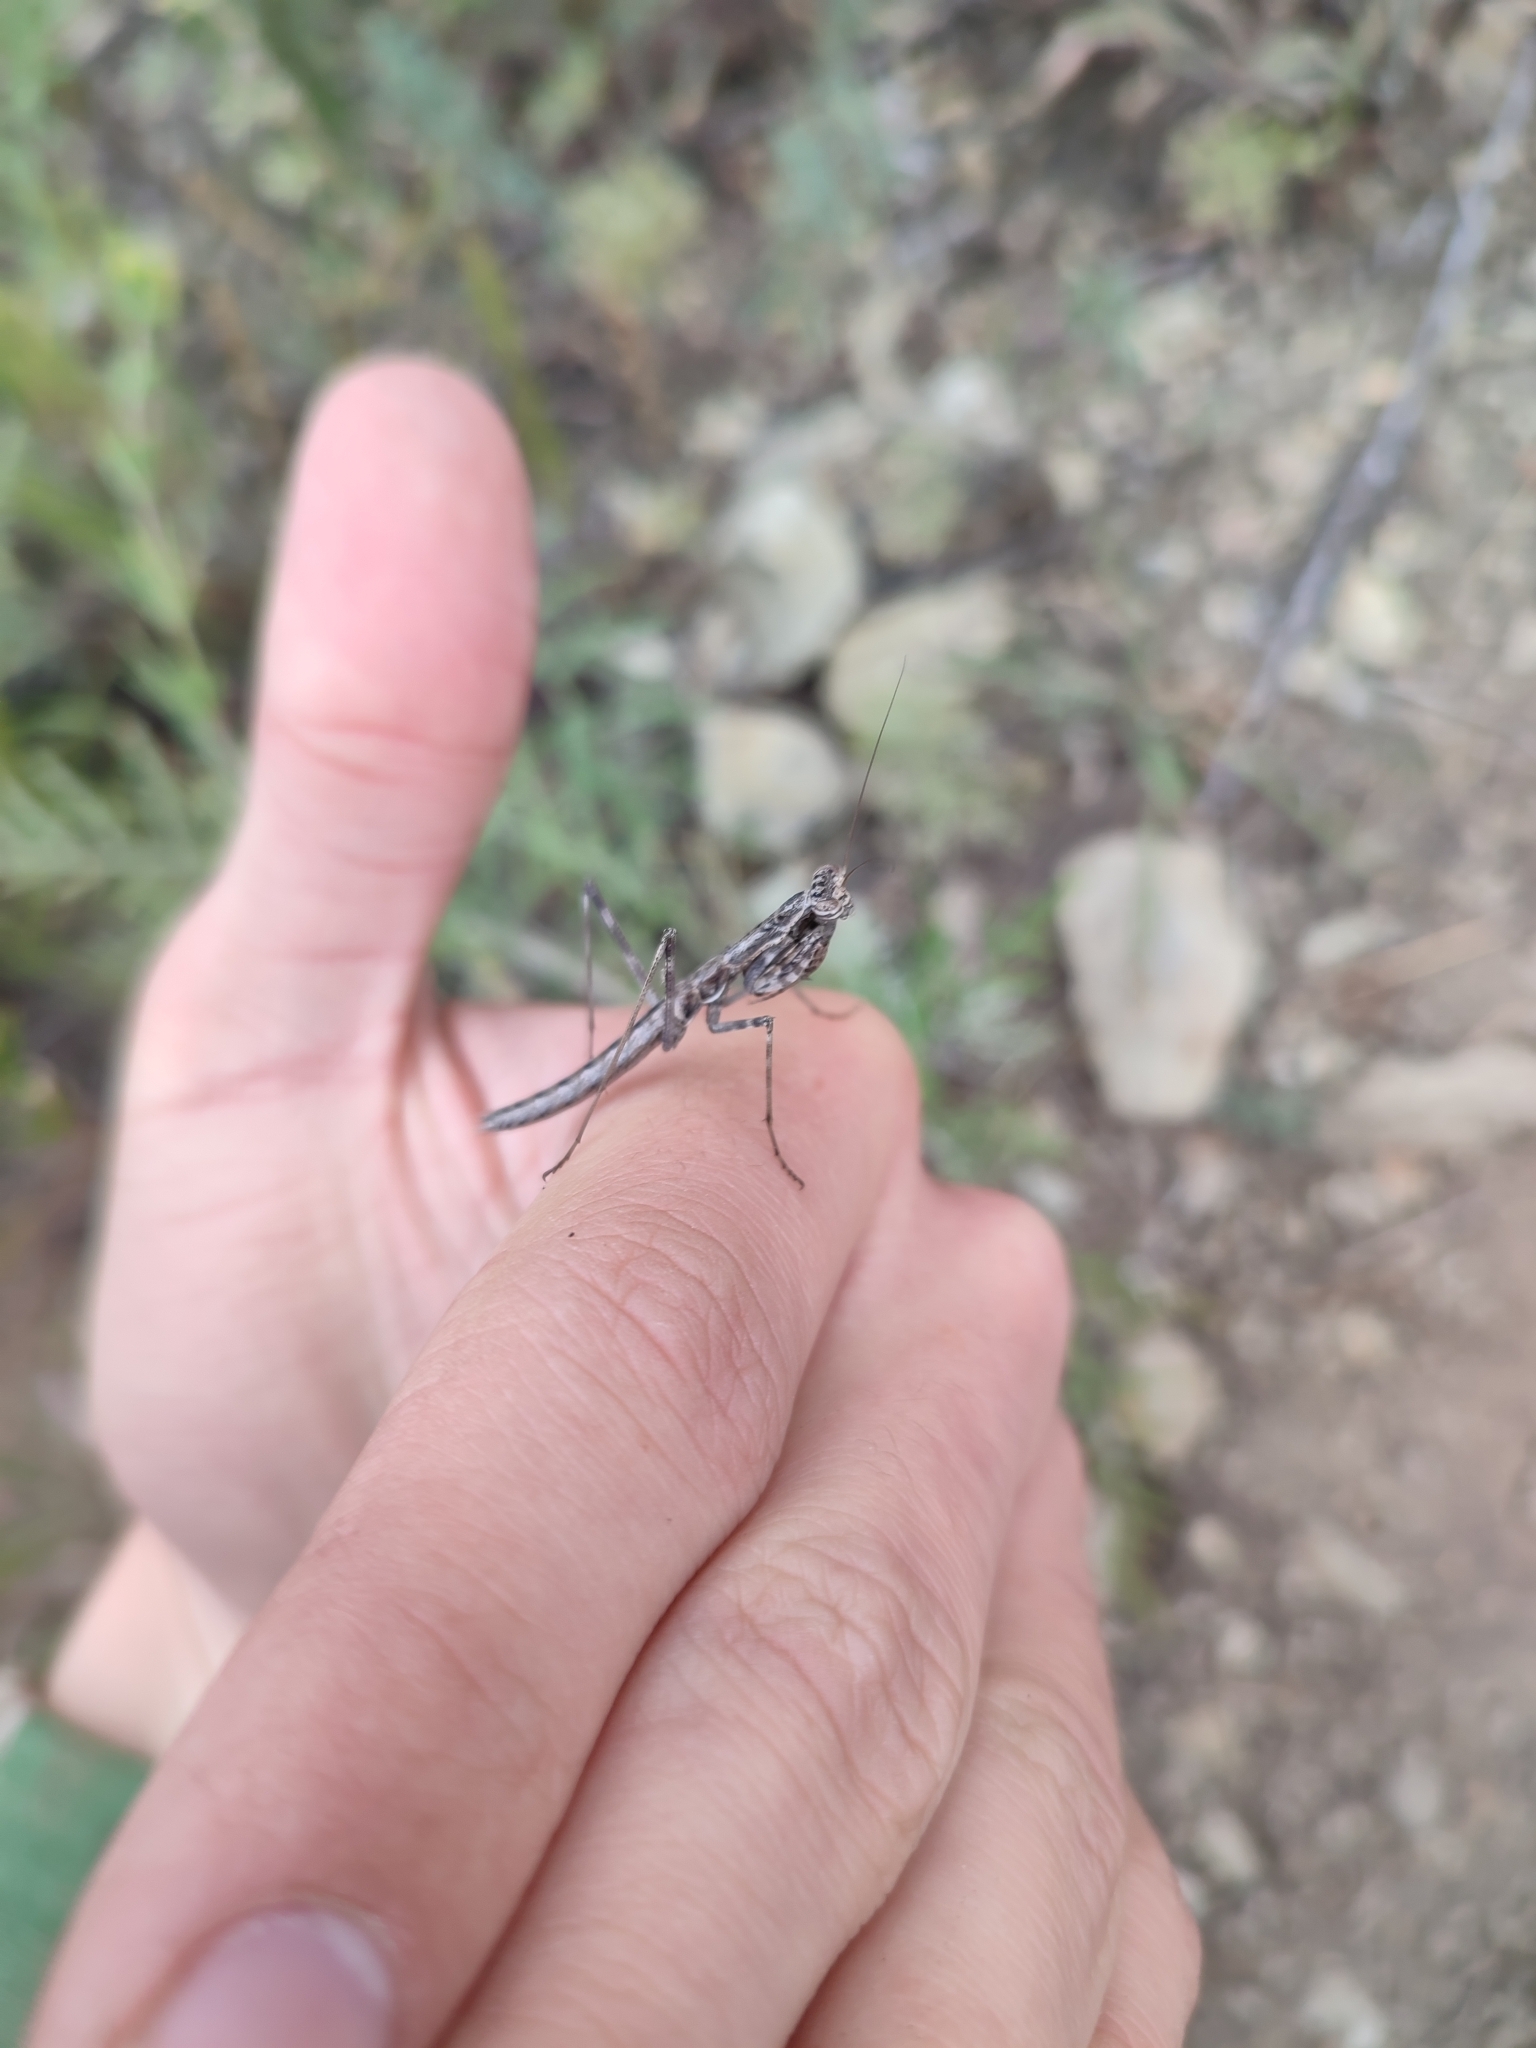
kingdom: Animalia
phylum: Arthropoda
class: Insecta
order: Mantodea
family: Rivetinidae
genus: Bolivaria
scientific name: Bolivaria brachyptera
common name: Bolivar's short winged mantis
